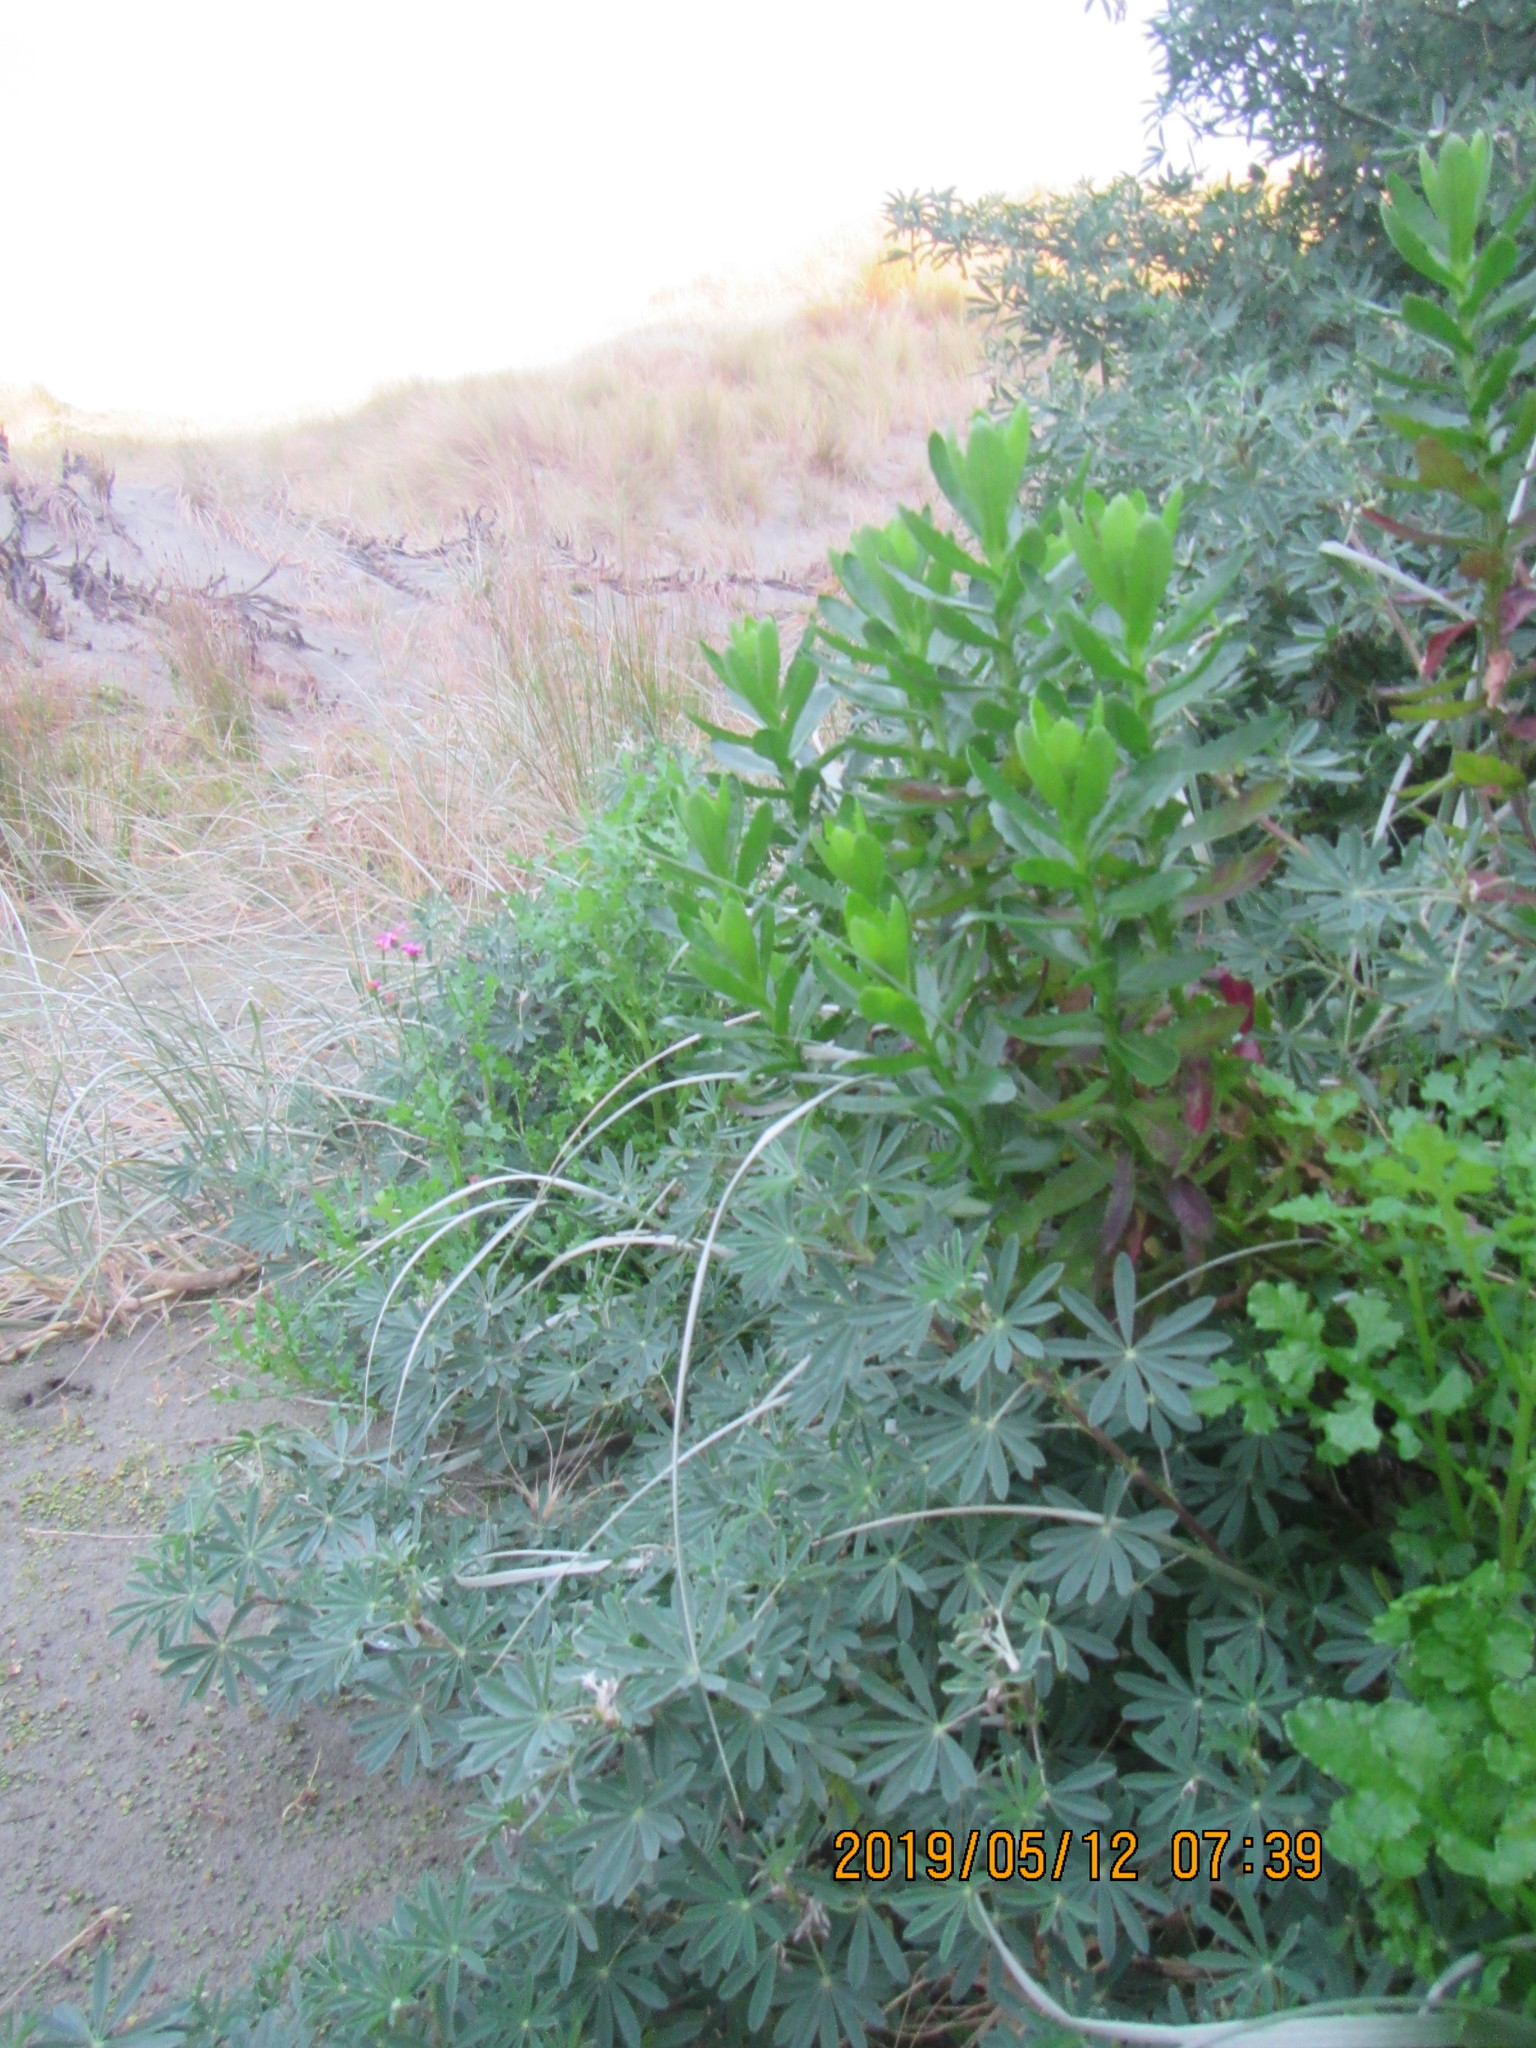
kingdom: Plantae
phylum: Tracheophyta
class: Magnoliopsida
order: Asterales
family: Asteraceae
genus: Senecio
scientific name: Senecio glastifolius
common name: Woad-leaved ragwort
